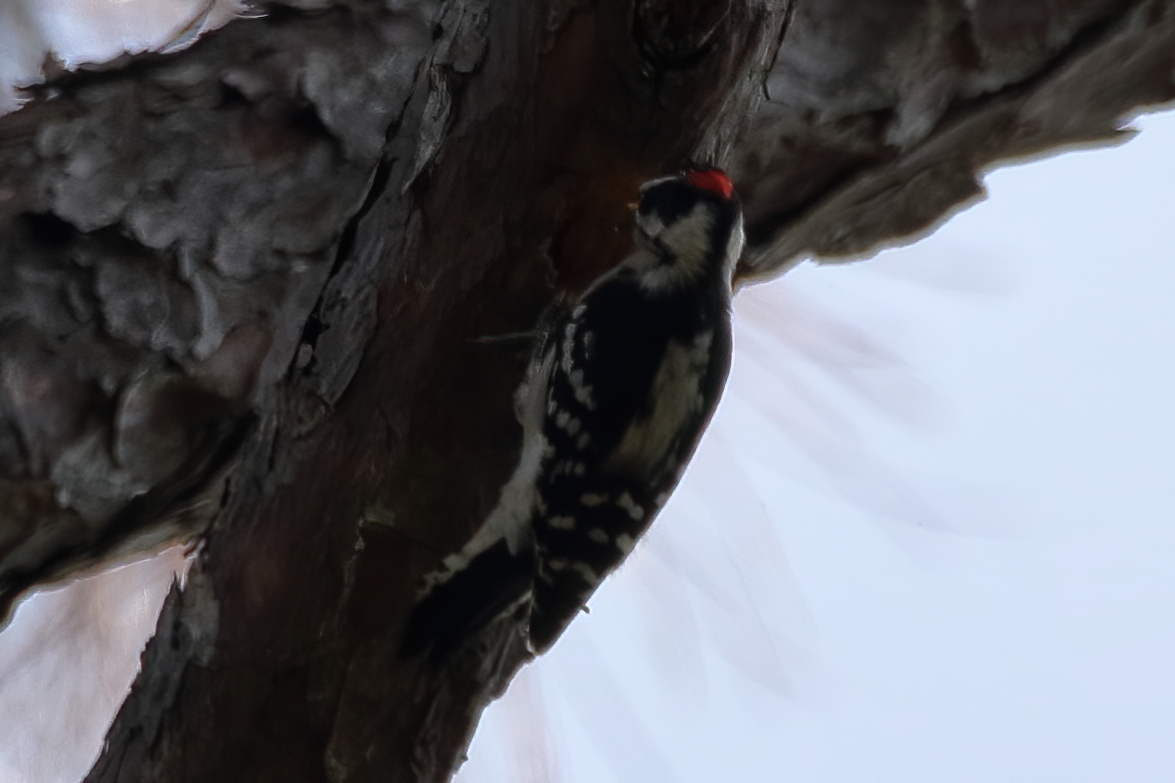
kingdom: Animalia
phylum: Chordata
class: Aves
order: Piciformes
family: Picidae
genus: Dryobates
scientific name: Dryobates pubescens
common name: Downy woodpecker
